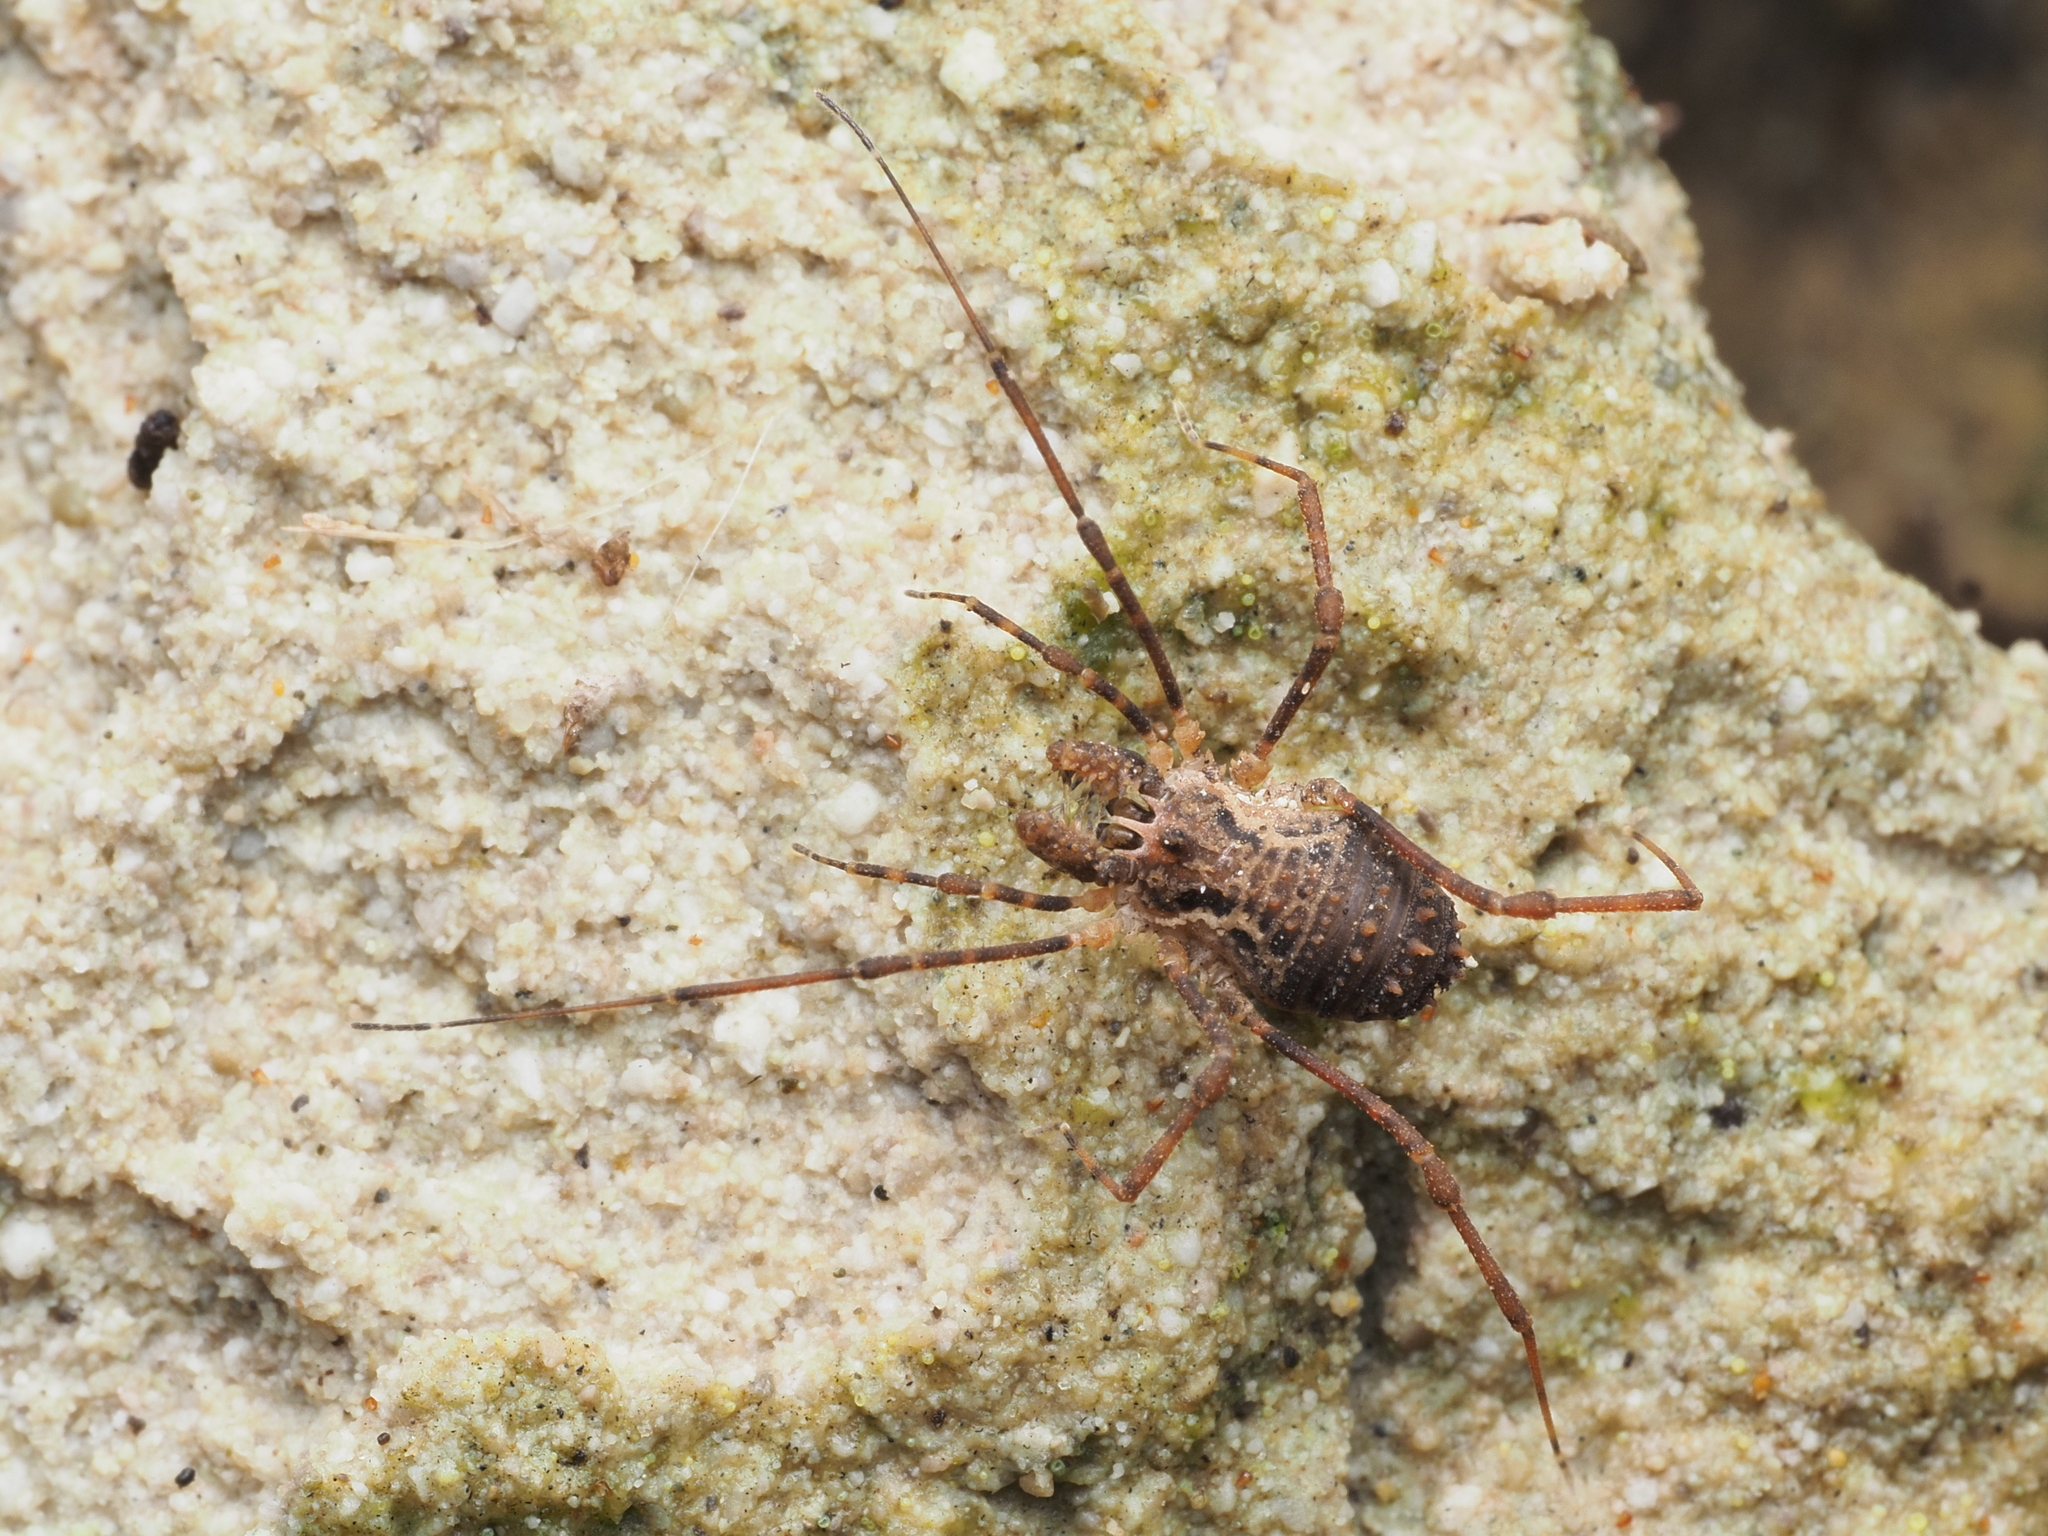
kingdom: Animalia
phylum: Arthropoda
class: Arachnida
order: Opiliones
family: Triaenonychidae
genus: Algidia
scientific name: Algidia chiltoni
